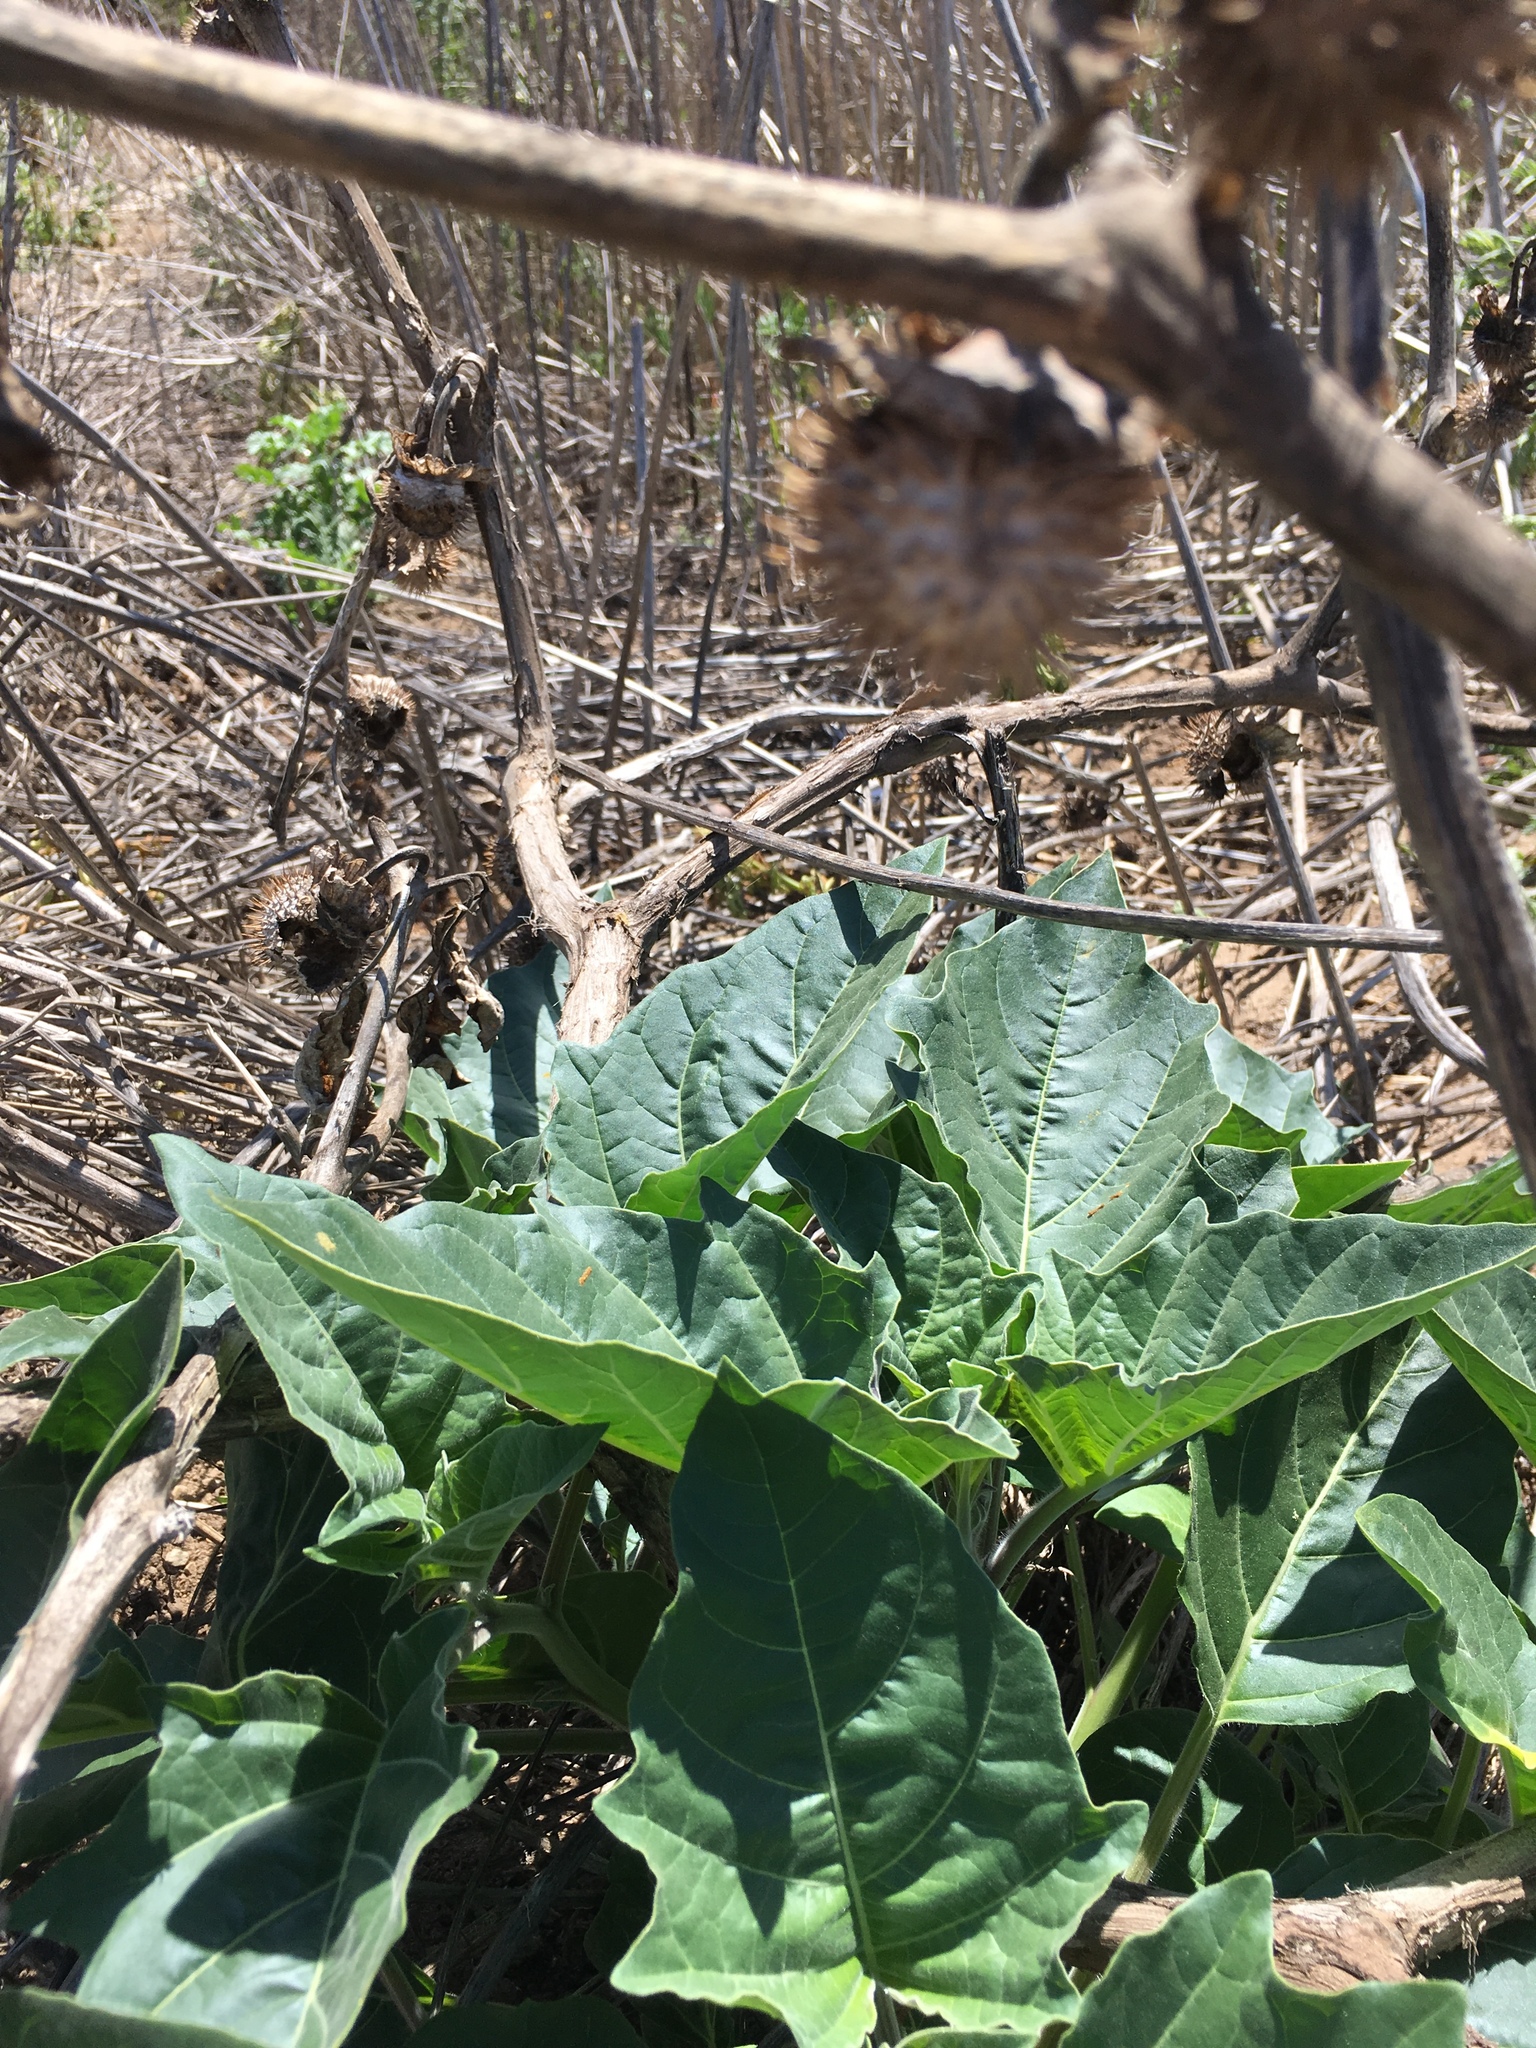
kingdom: Plantae
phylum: Tracheophyta
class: Magnoliopsida
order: Solanales
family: Solanaceae
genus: Datura
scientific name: Datura wrightii
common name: Sacred thorn-apple
